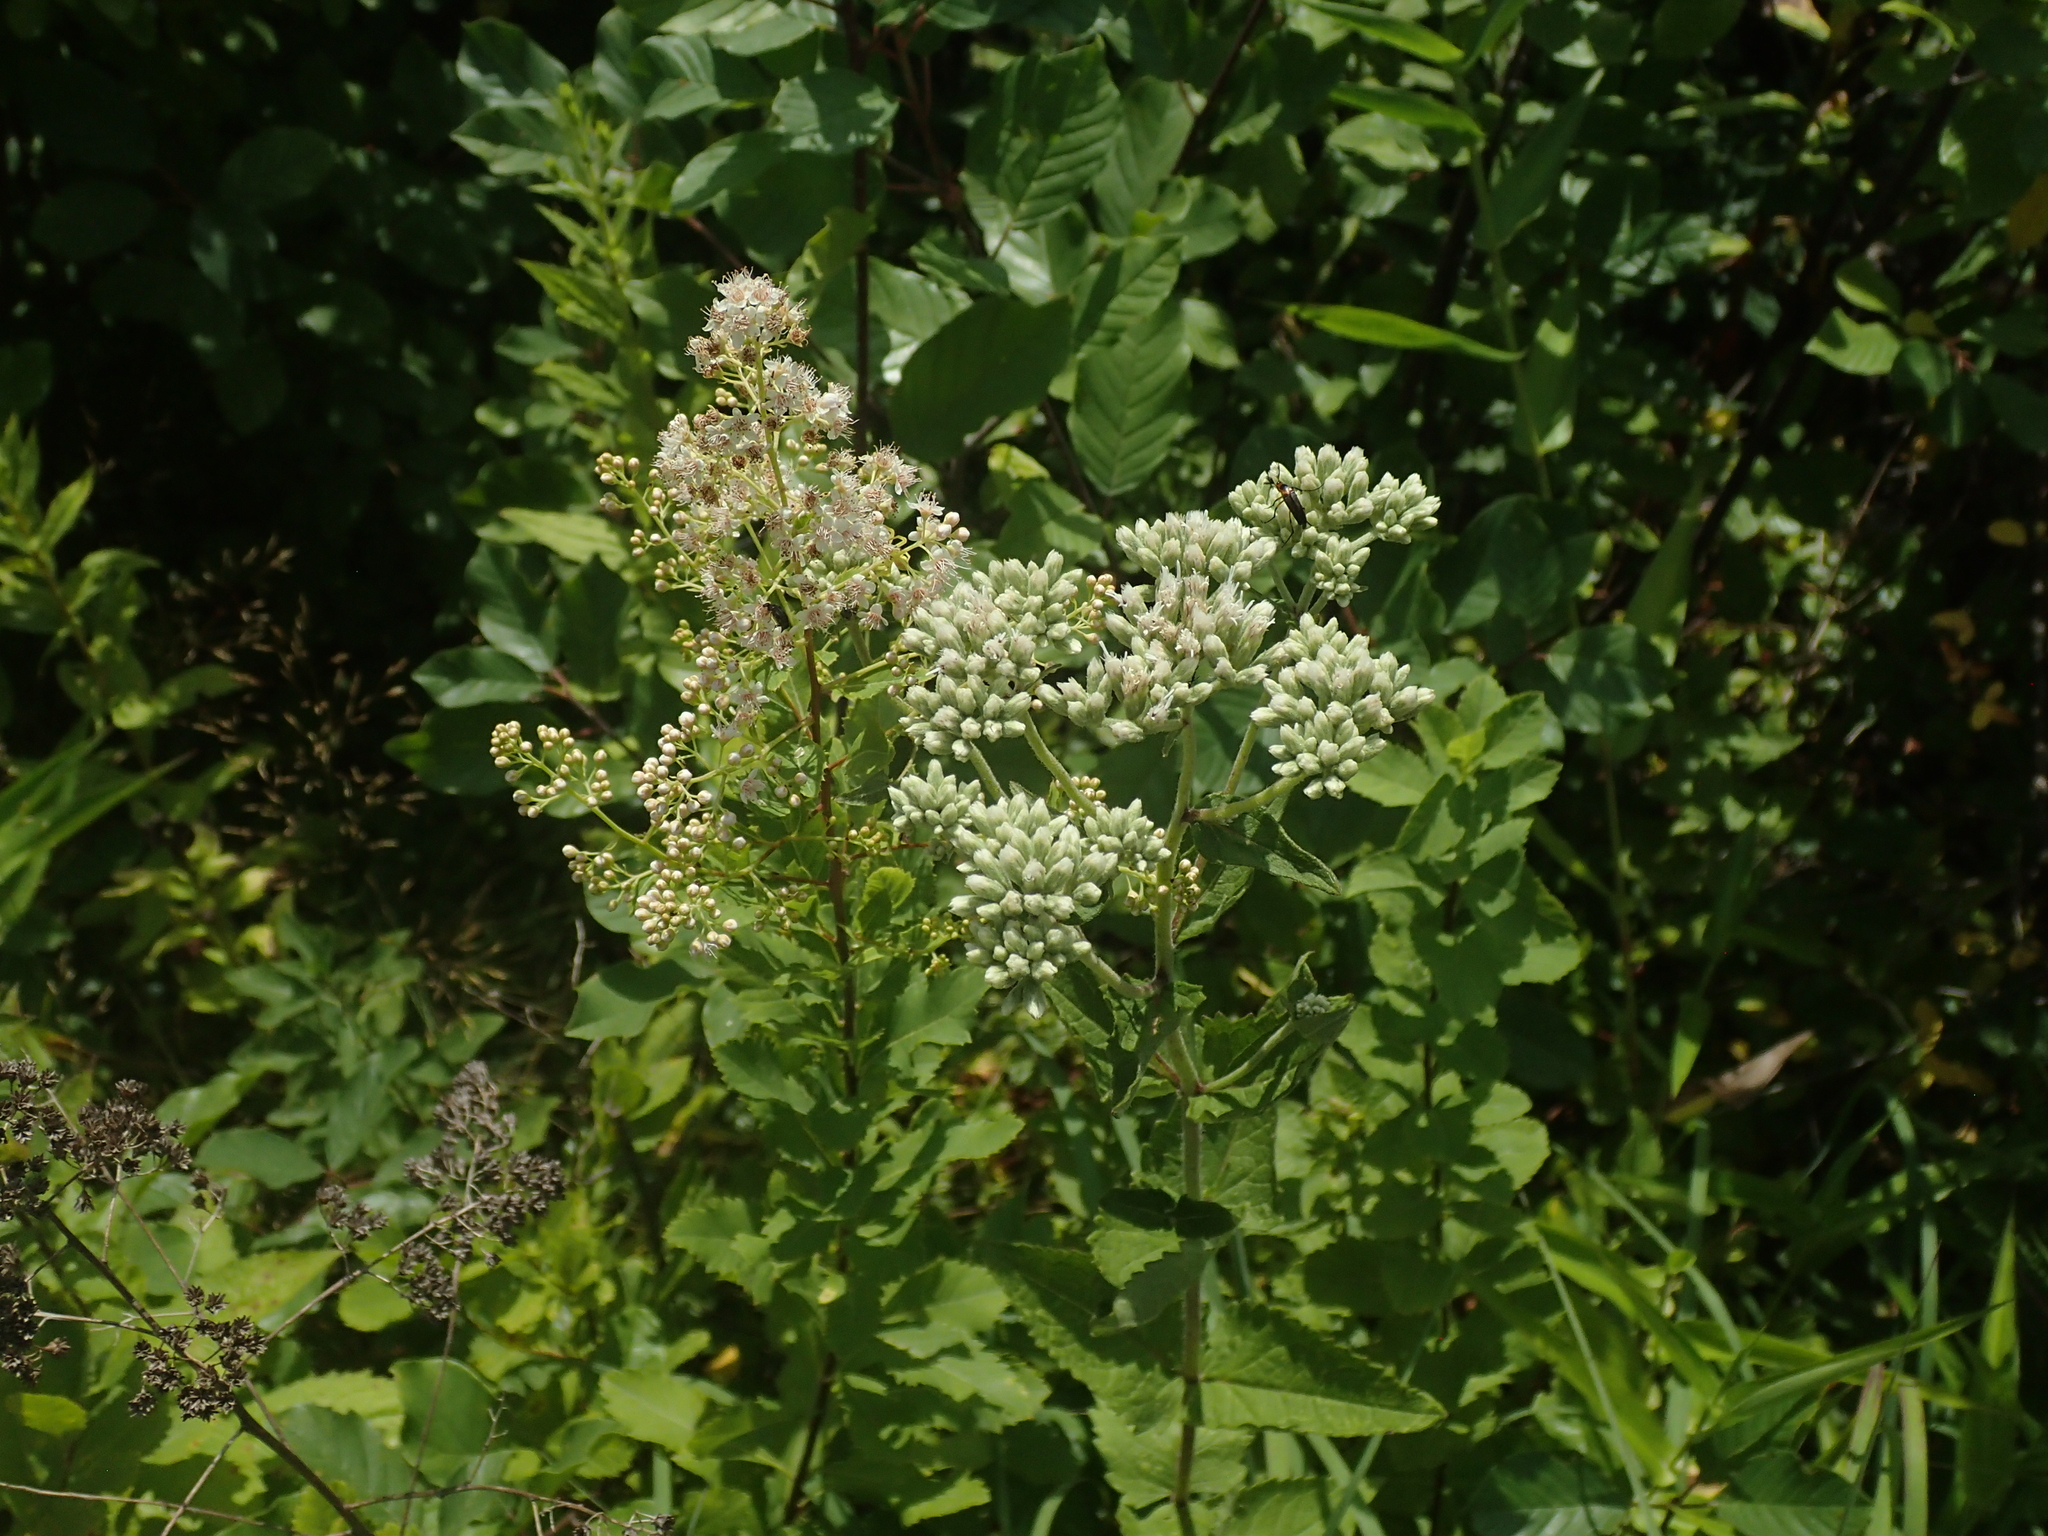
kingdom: Plantae
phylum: Tracheophyta
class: Magnoliopsida
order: Asterales
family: Asteraceae
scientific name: Asteraceae
